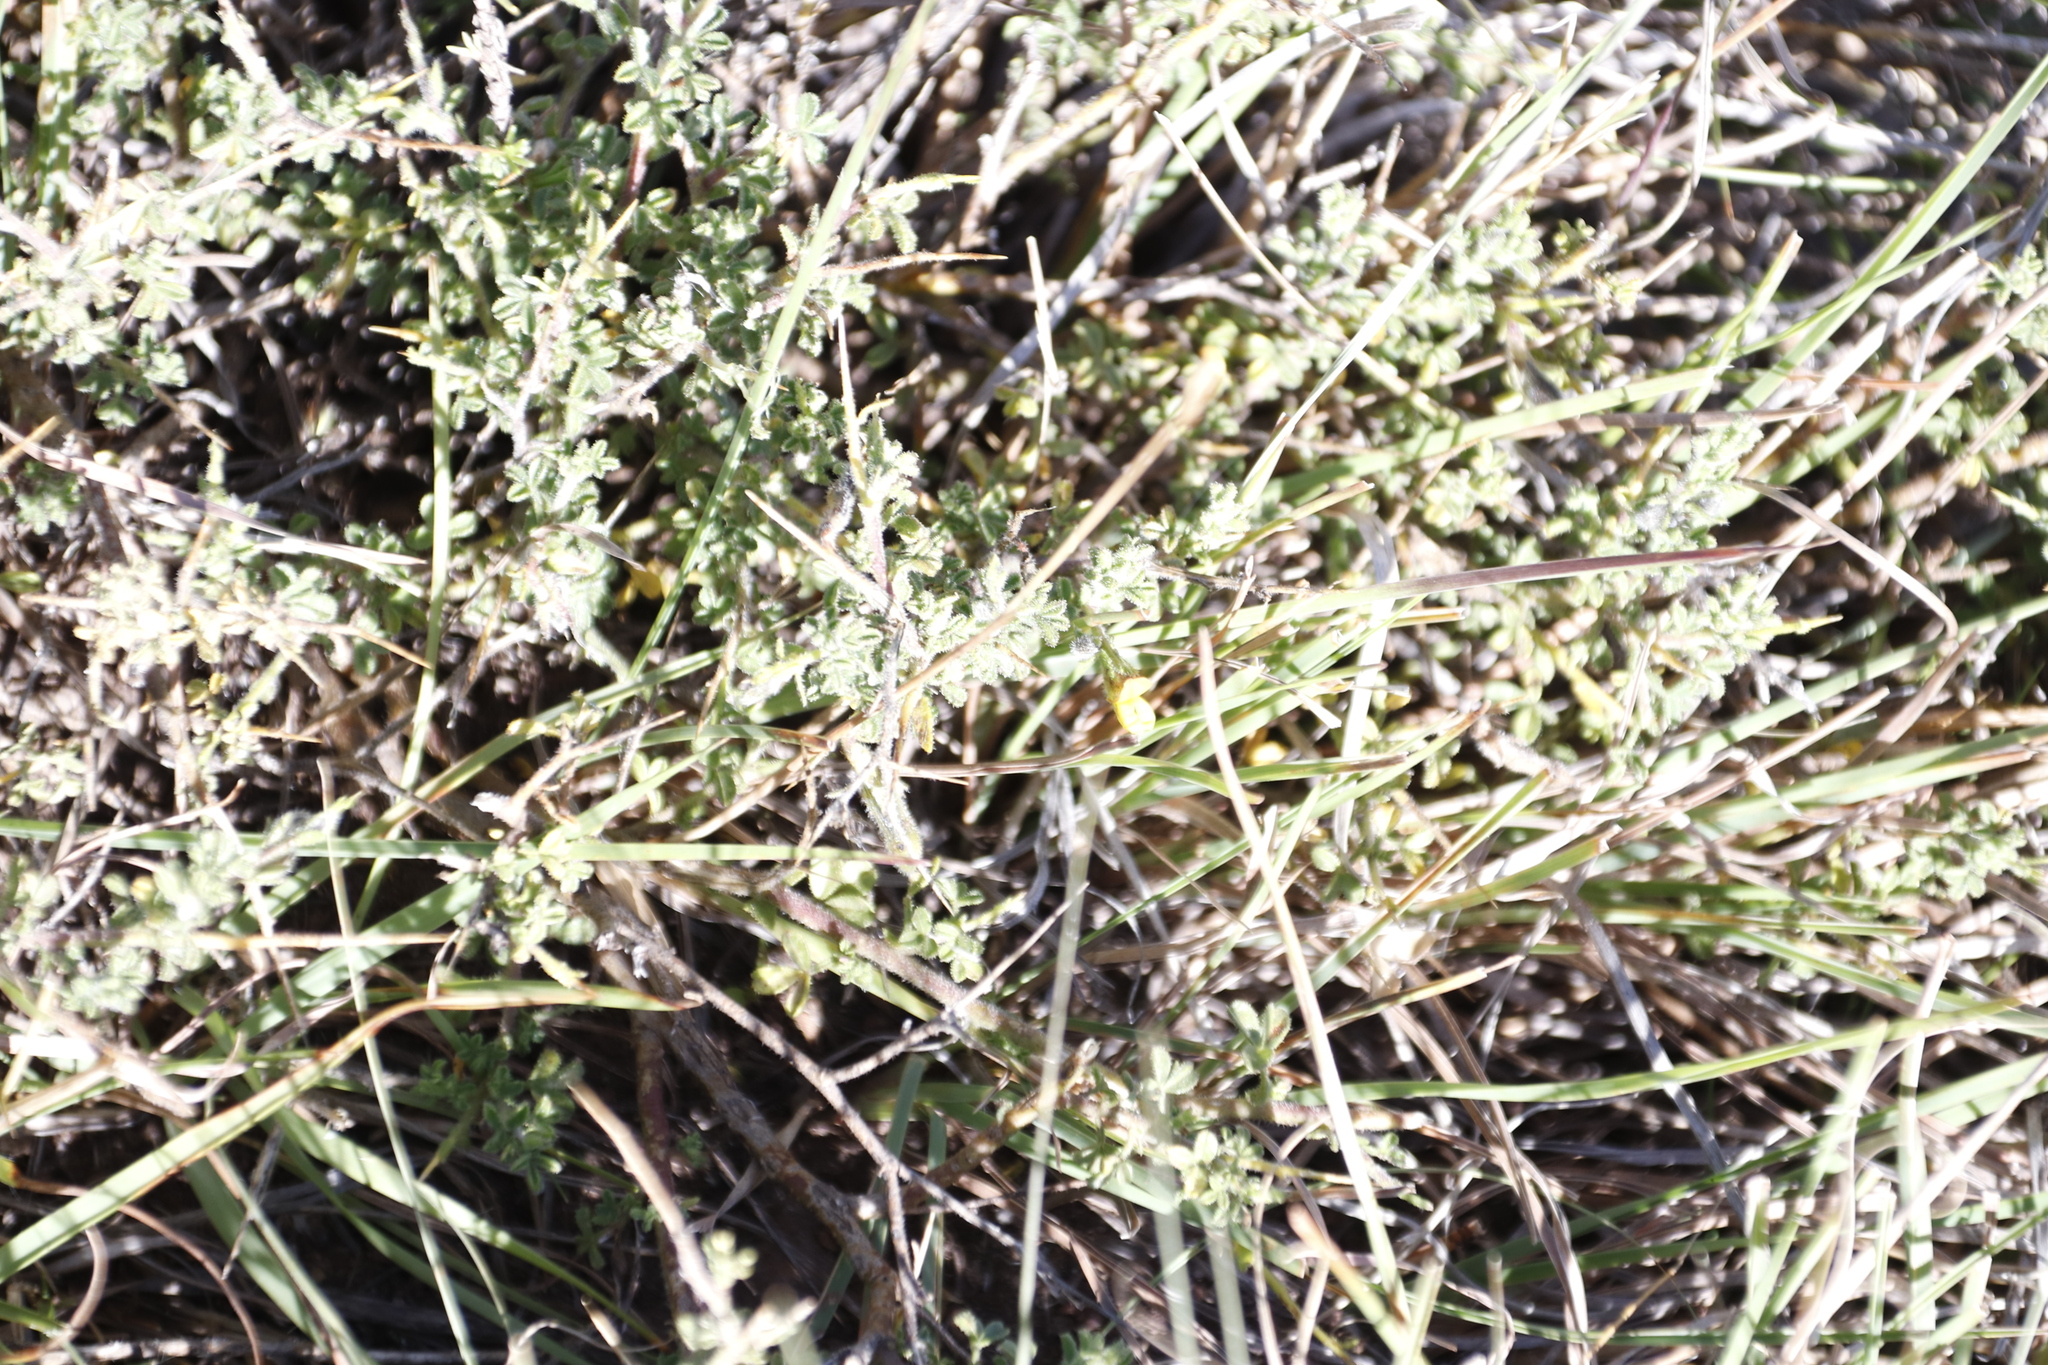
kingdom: Plantae
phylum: Tracheophyta
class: Magnoliopsida
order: Fabales
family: Fabaceae
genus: Melolobium
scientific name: Melolobium microphyllum
